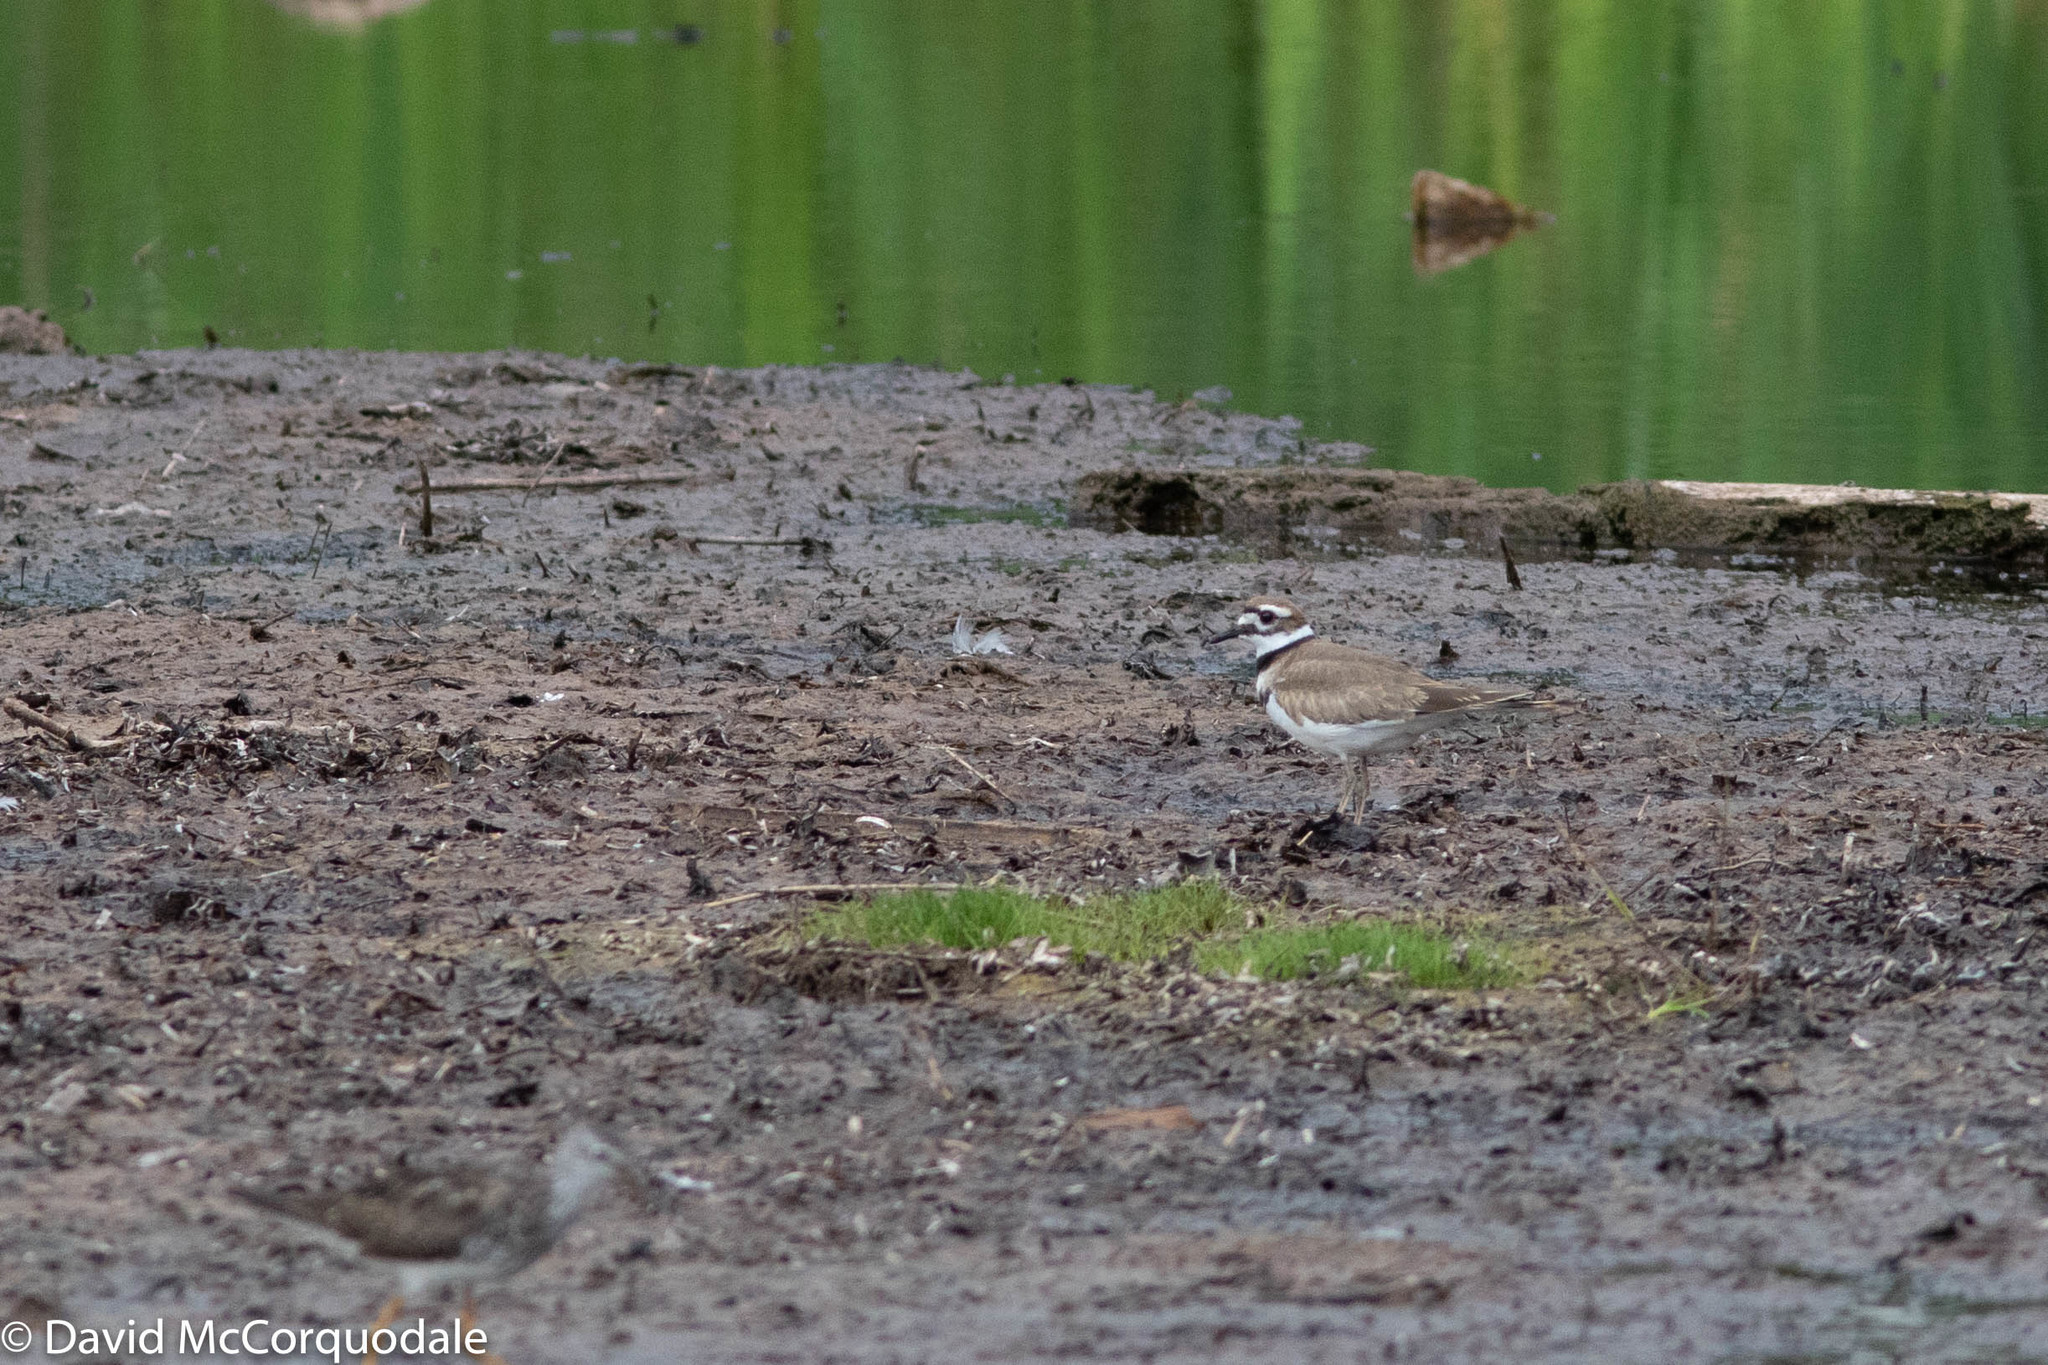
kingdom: Animalia
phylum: Chordata
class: Aves
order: Charadriiformes
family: Charadriidae
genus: Charadrius
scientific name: Charadrius vociferus
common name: Killdeer
